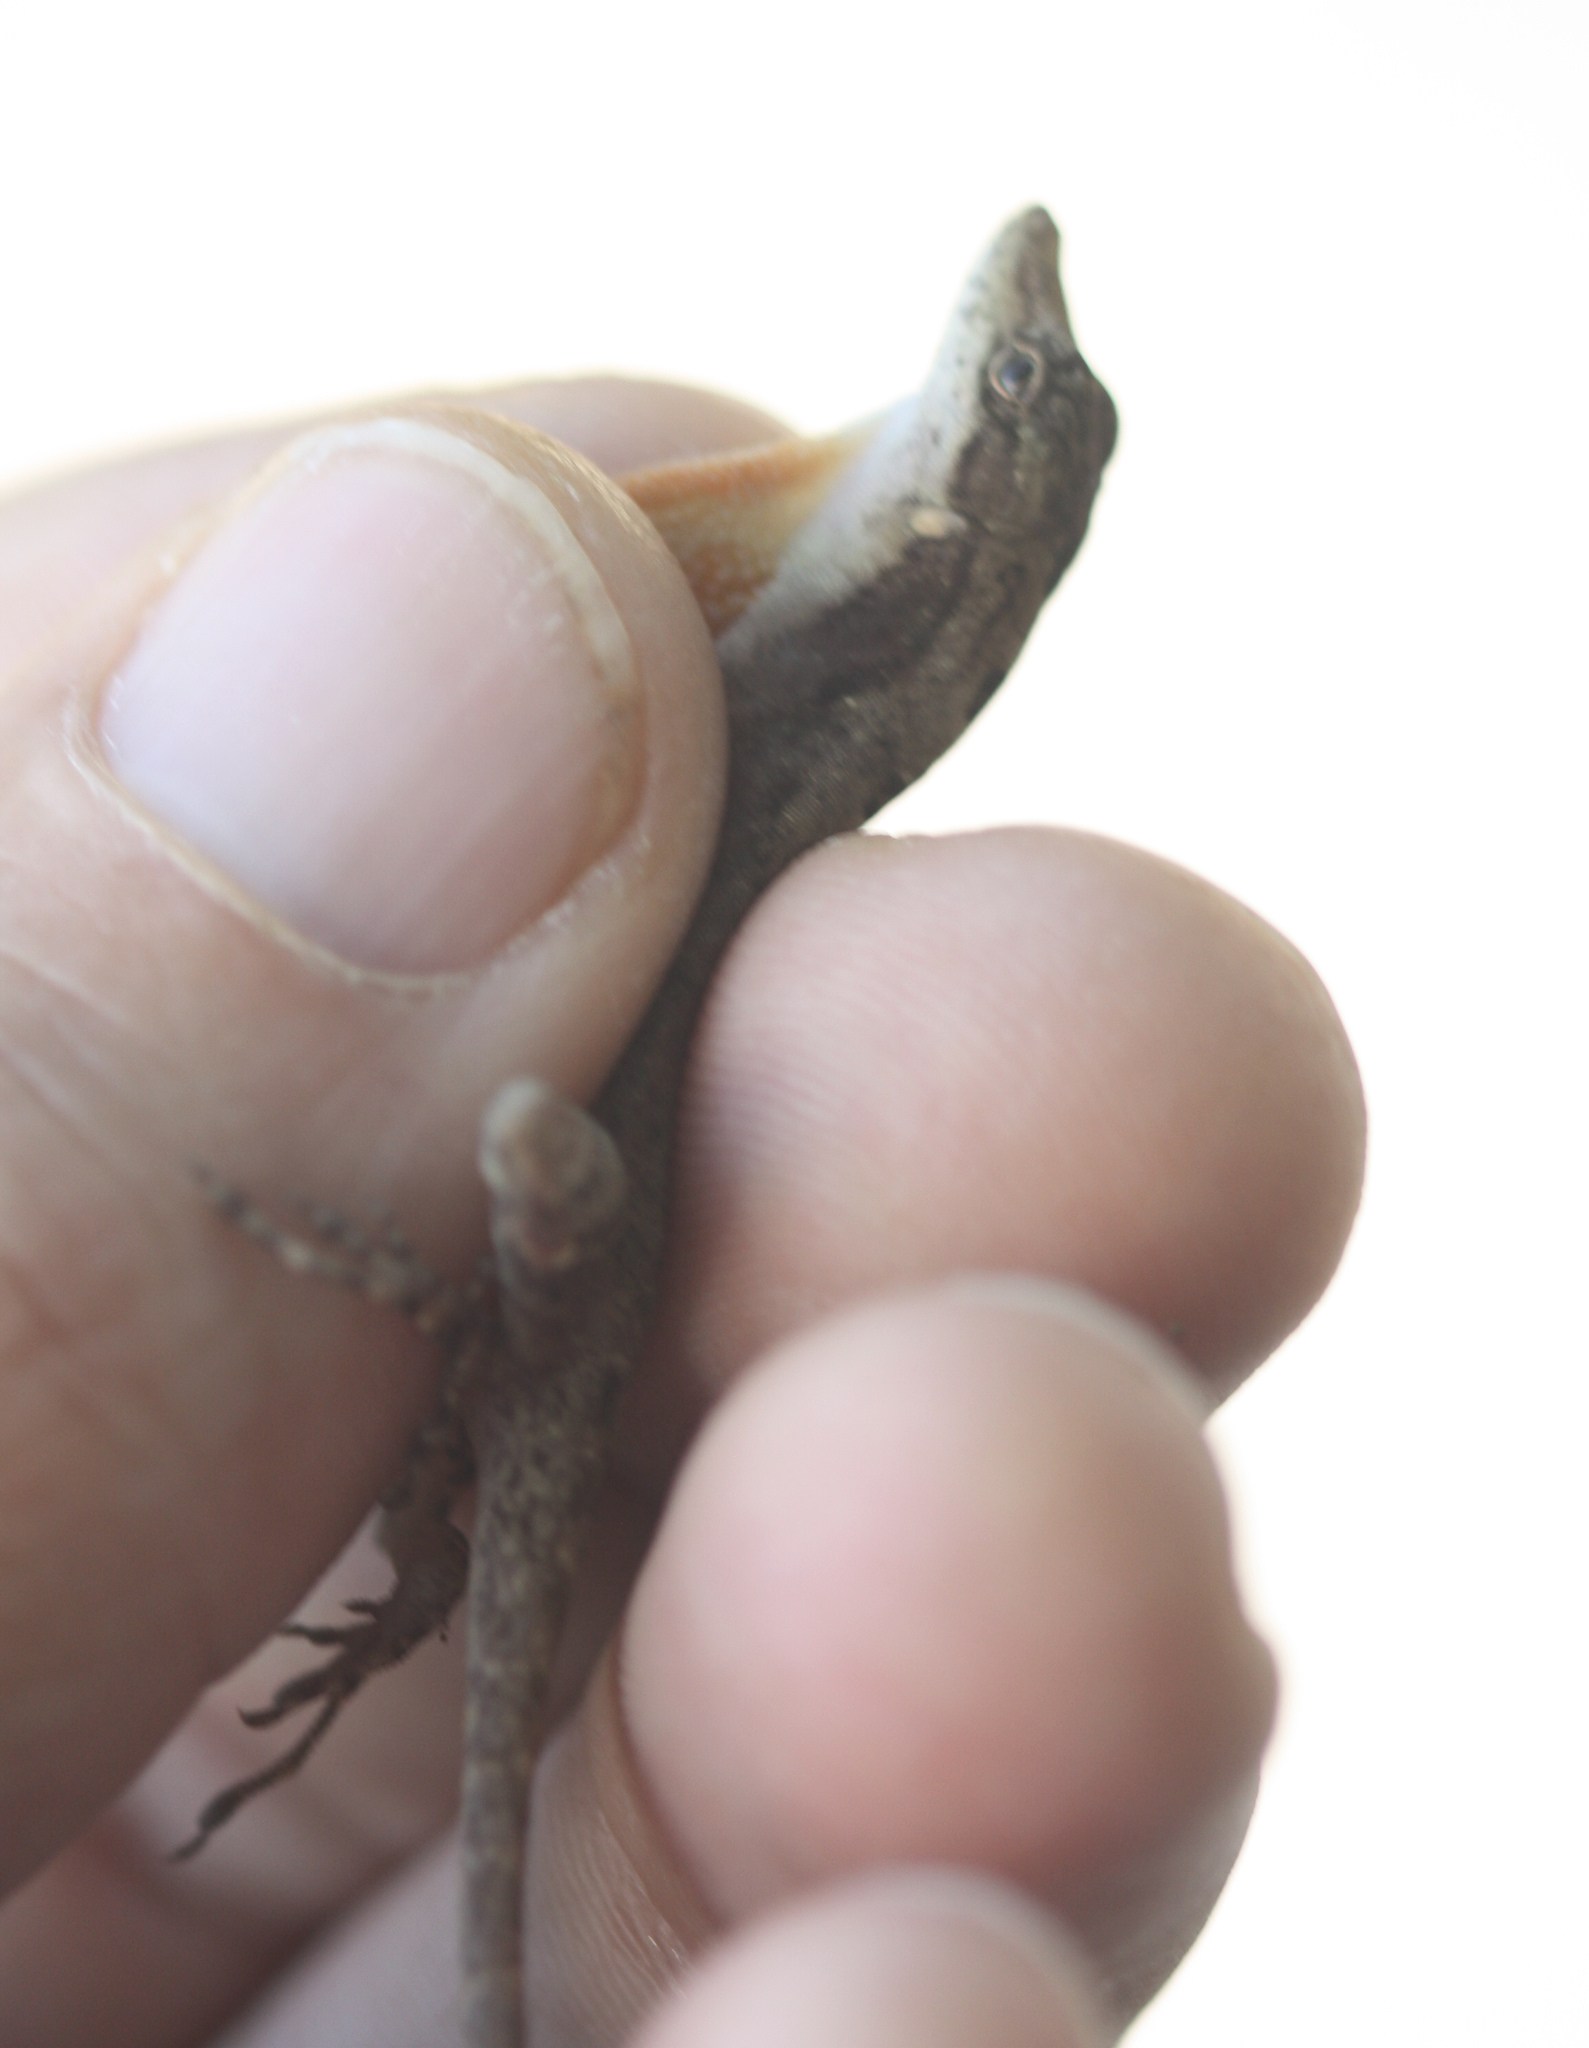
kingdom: Animalia
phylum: Chordata
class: Squamata
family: Dactyloidae
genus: Anolis
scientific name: Anolis rodriguezii
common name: Middle american smooth anole
